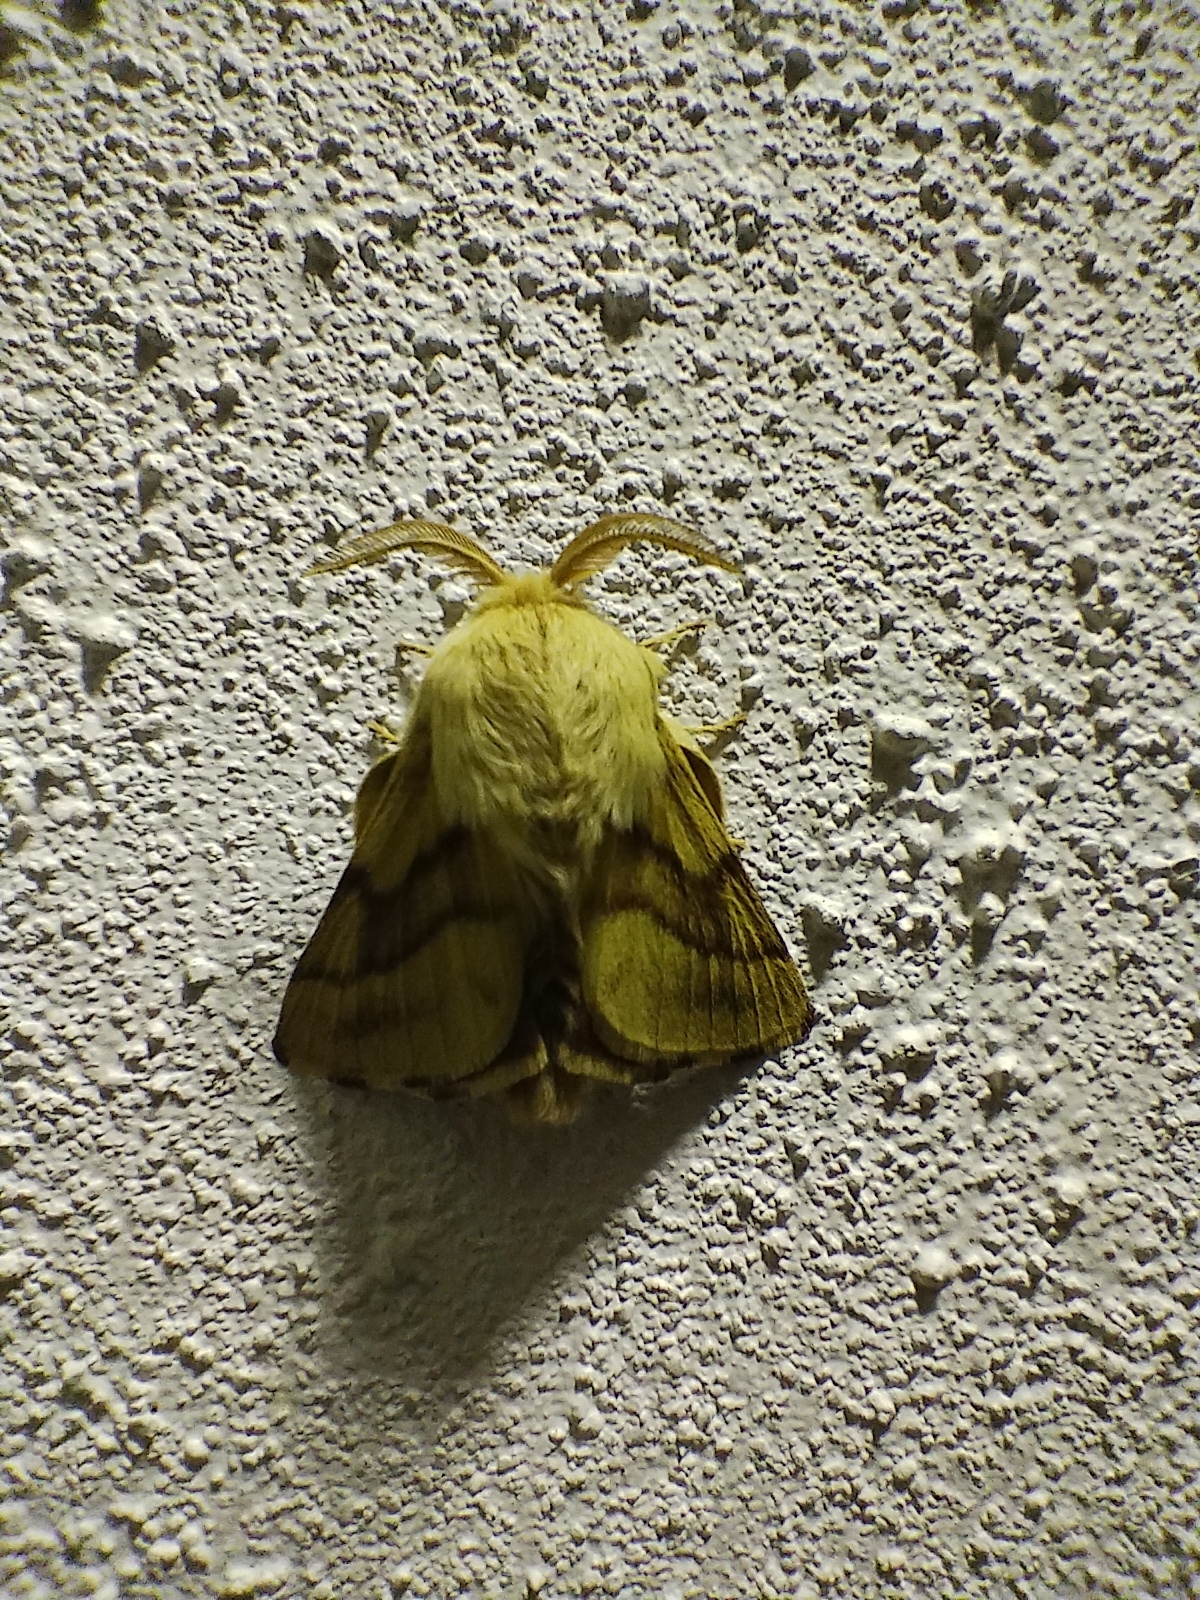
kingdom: Animalia
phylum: Arthropoda
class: Insecta
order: Lepidoptera
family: Lasiocampidae
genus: Malacosoma
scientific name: Malacosoma castrense
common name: Ground lackey
